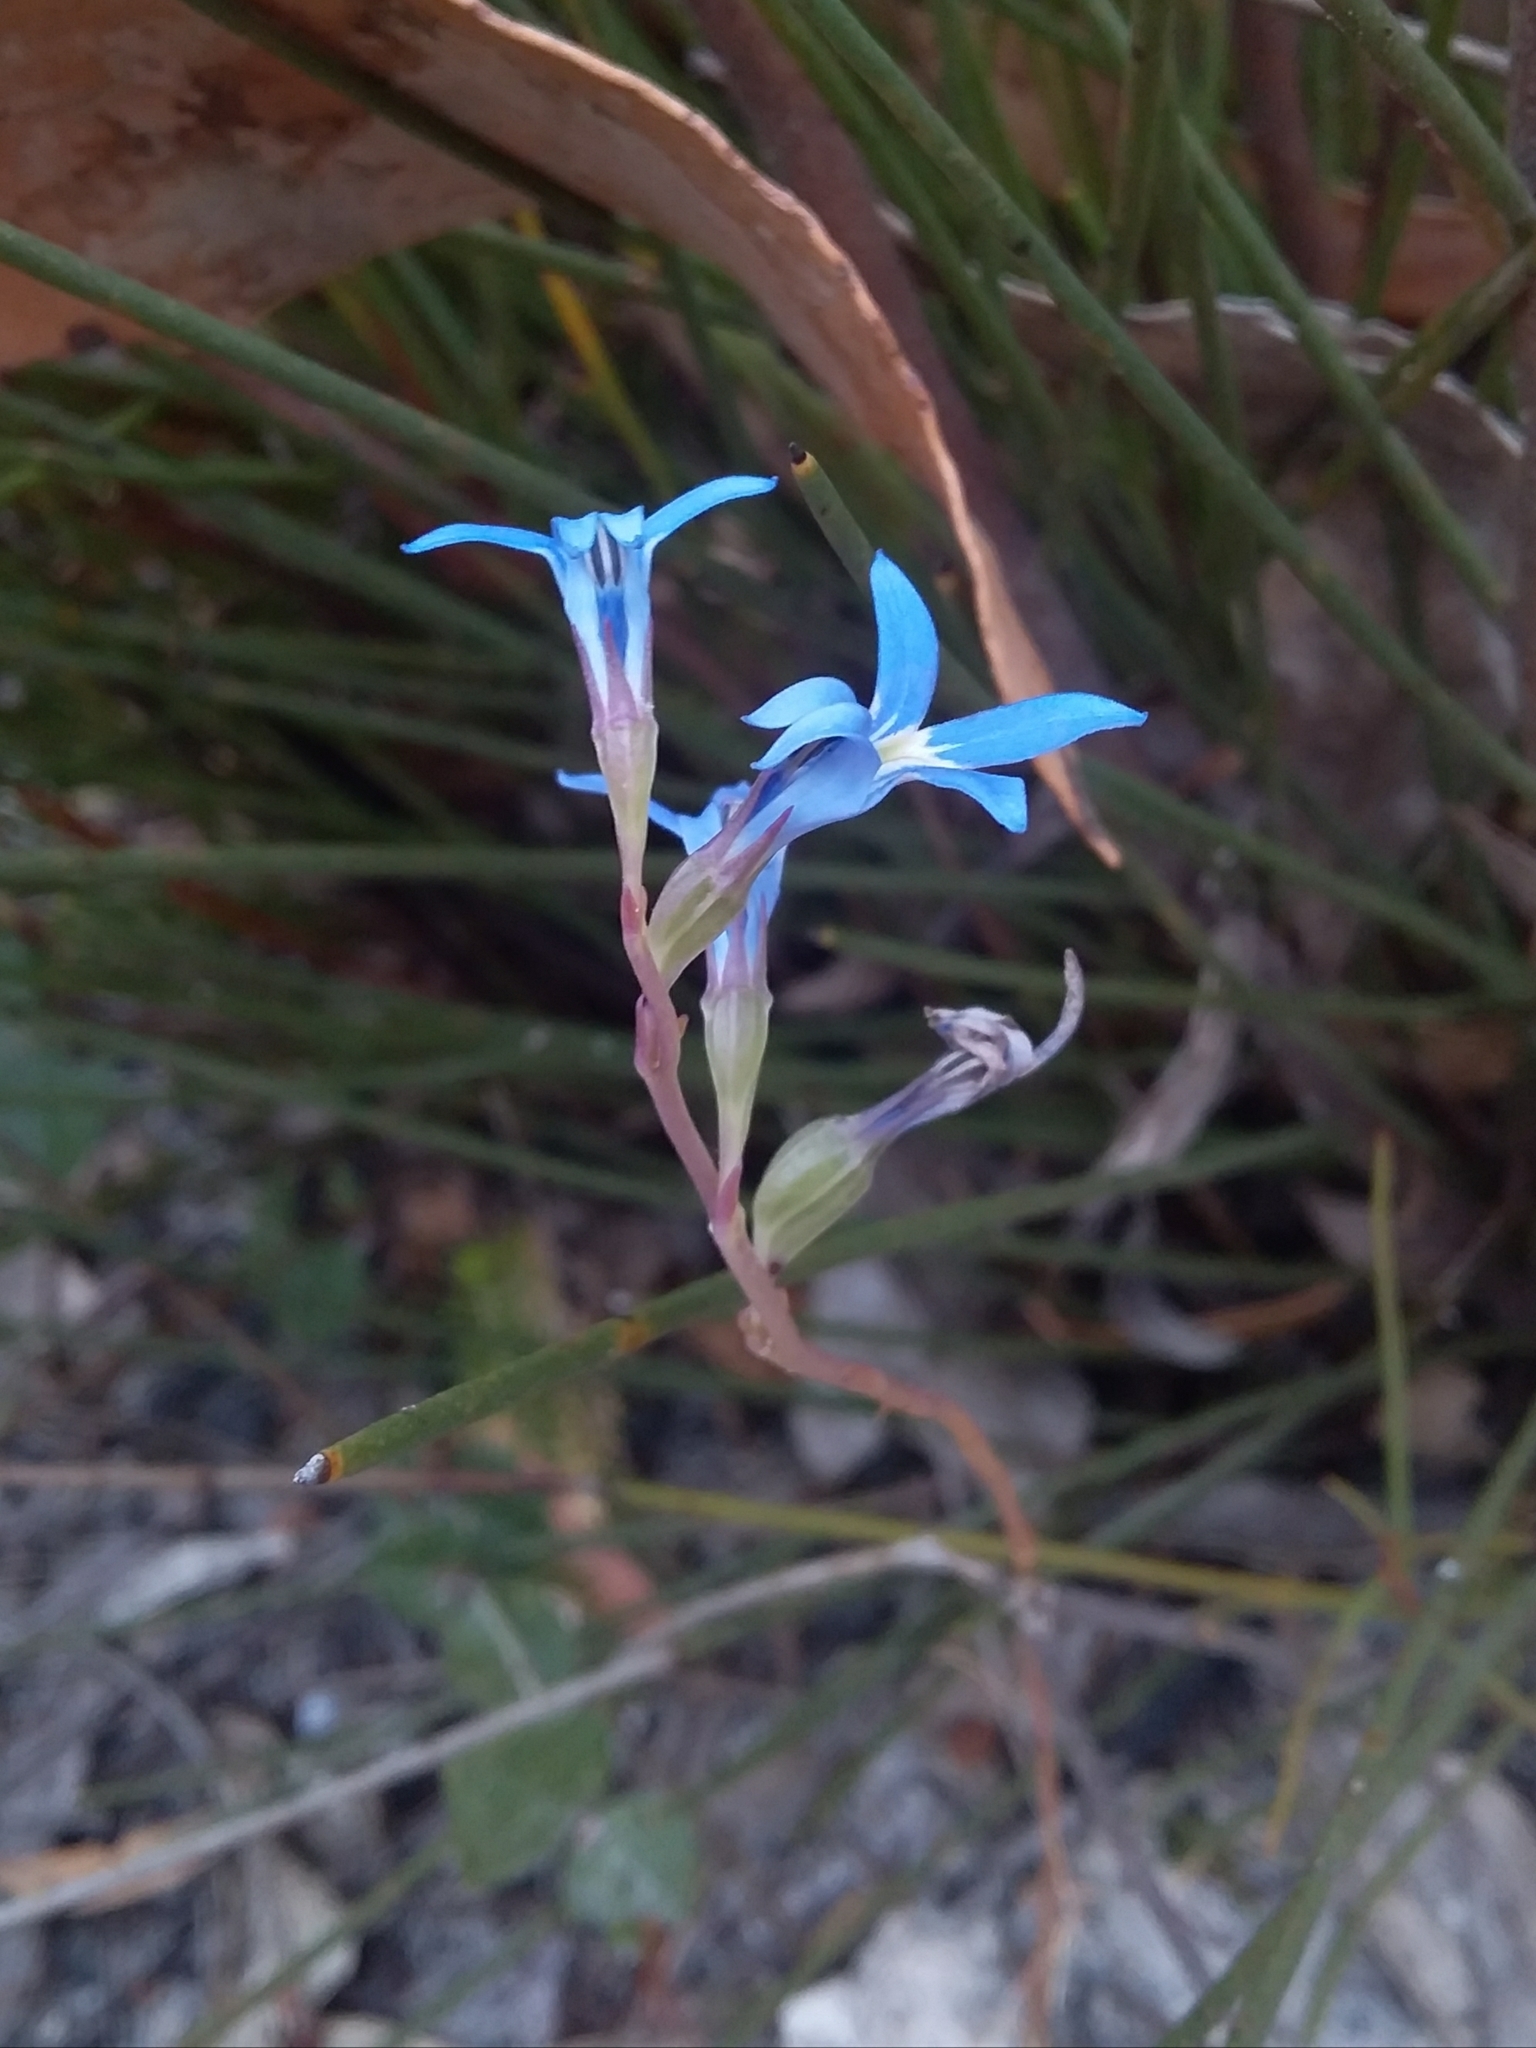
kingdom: Plantae
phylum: Tracheophyta
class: Magnoliopsida
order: Asterales
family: Campanulaceae
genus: Lobelia
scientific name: Lobelia gibbosa
